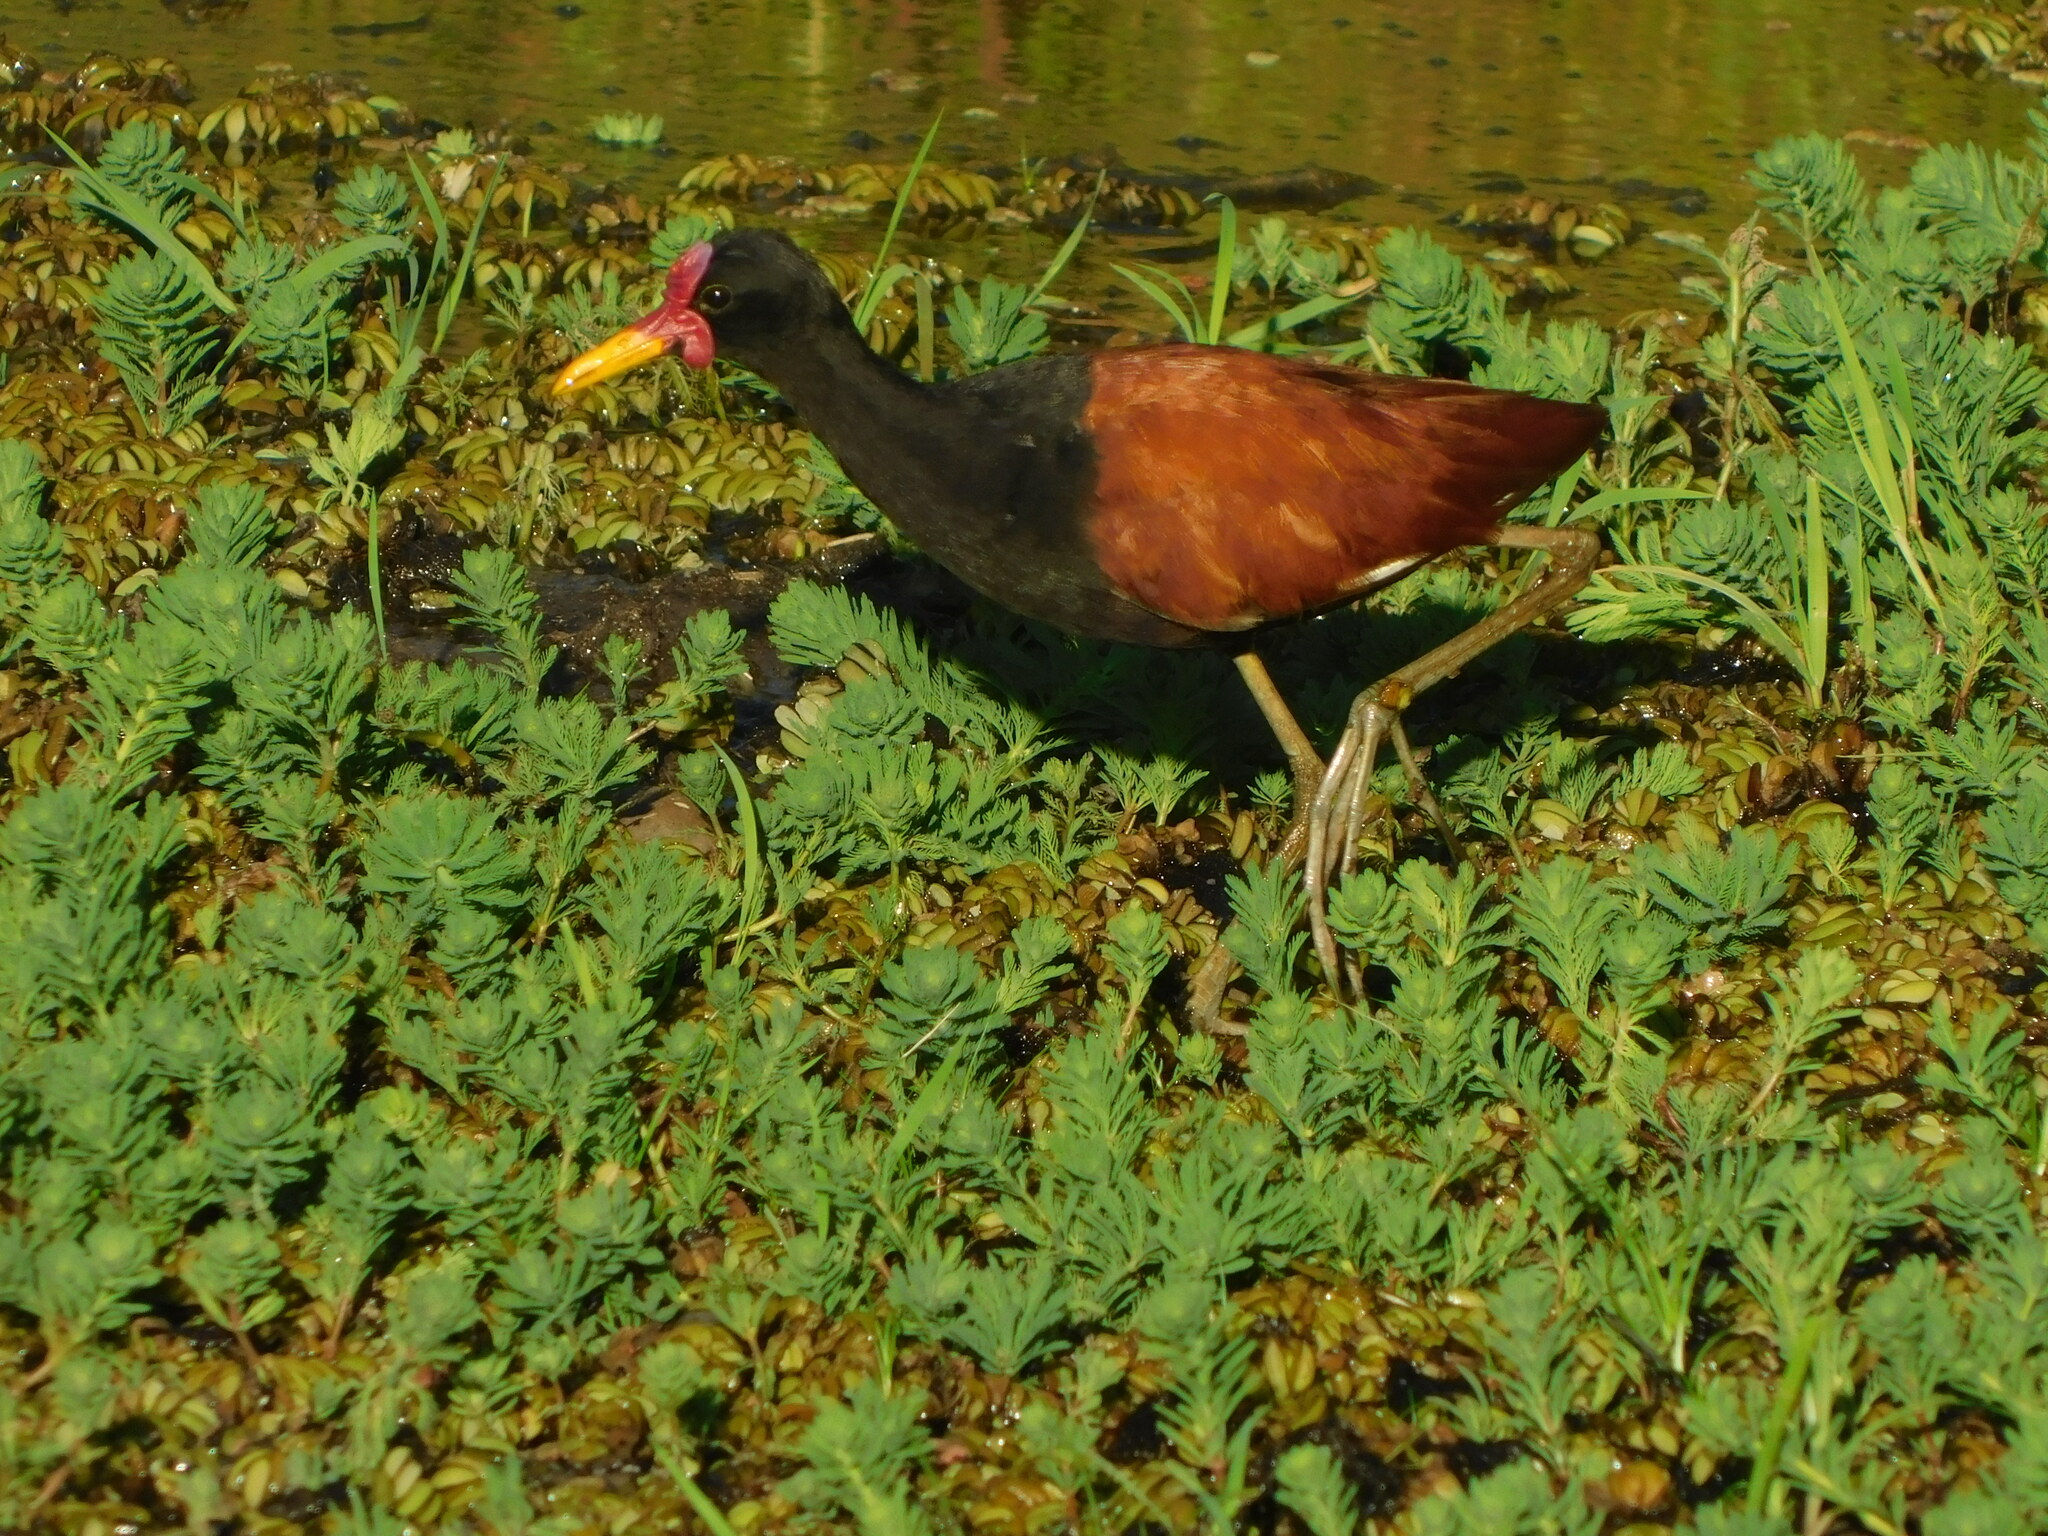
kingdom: Animalia
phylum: Chordata
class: Aves
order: Charadriiformes
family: Jacanidae
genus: Jacana
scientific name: Jacana jacana
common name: Wattled jacana
